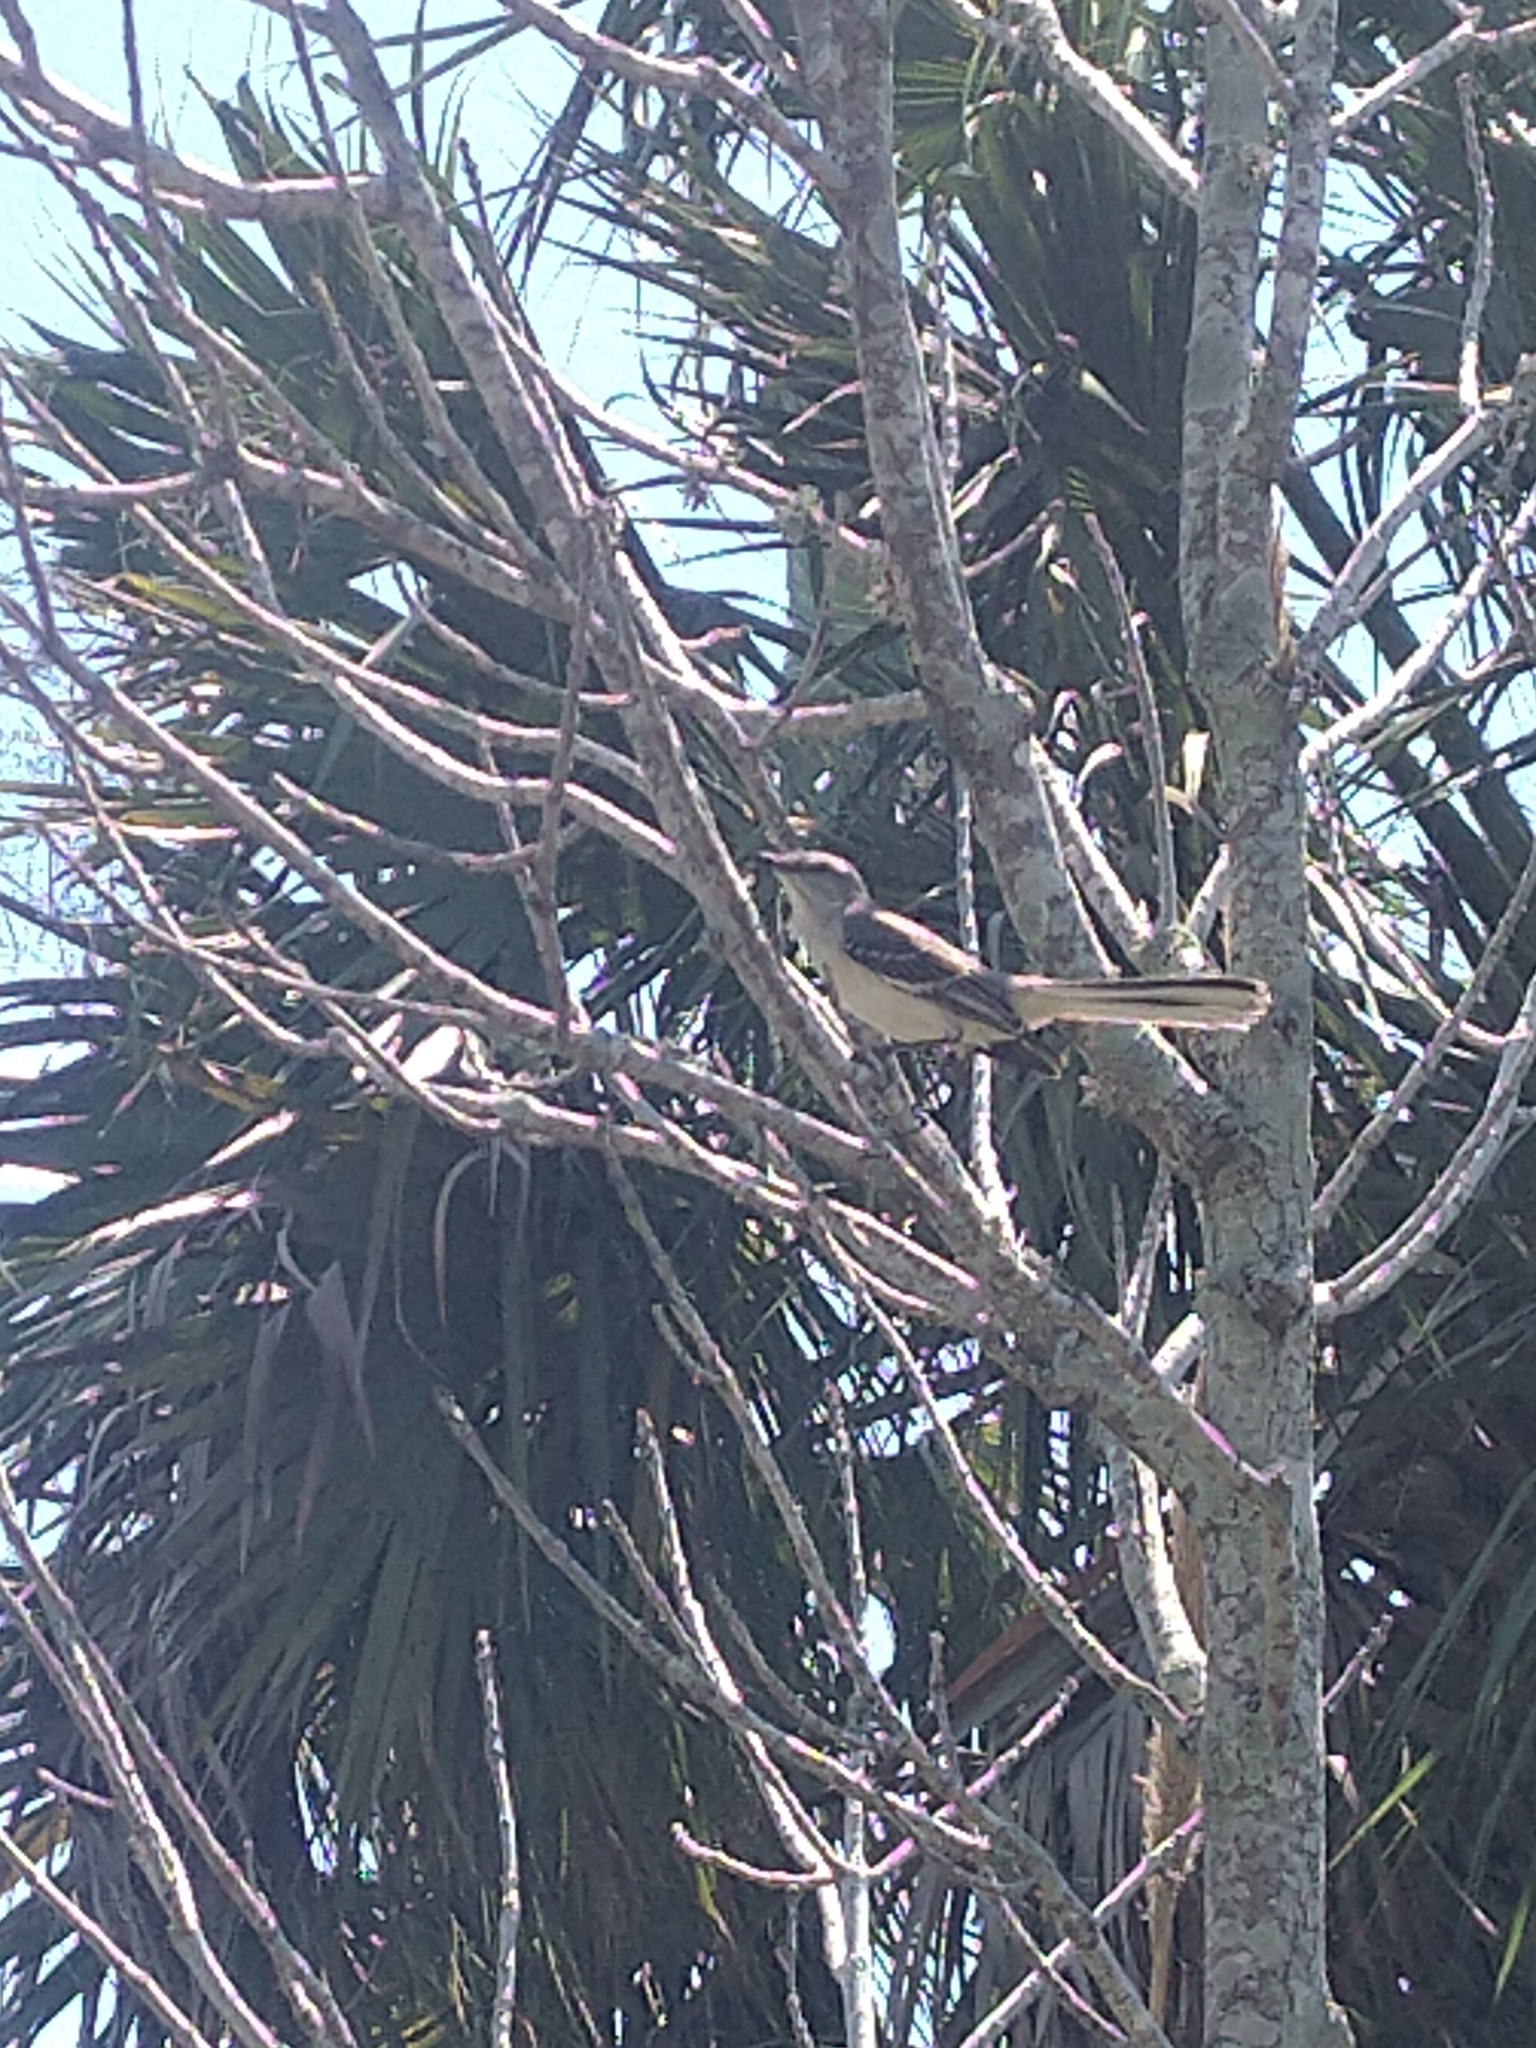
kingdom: Animalia
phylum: Chordata
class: Aves
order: Passeriformes
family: Mimidae
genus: Mimus
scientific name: Mimus polyglottos
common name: Northern mockingbird
